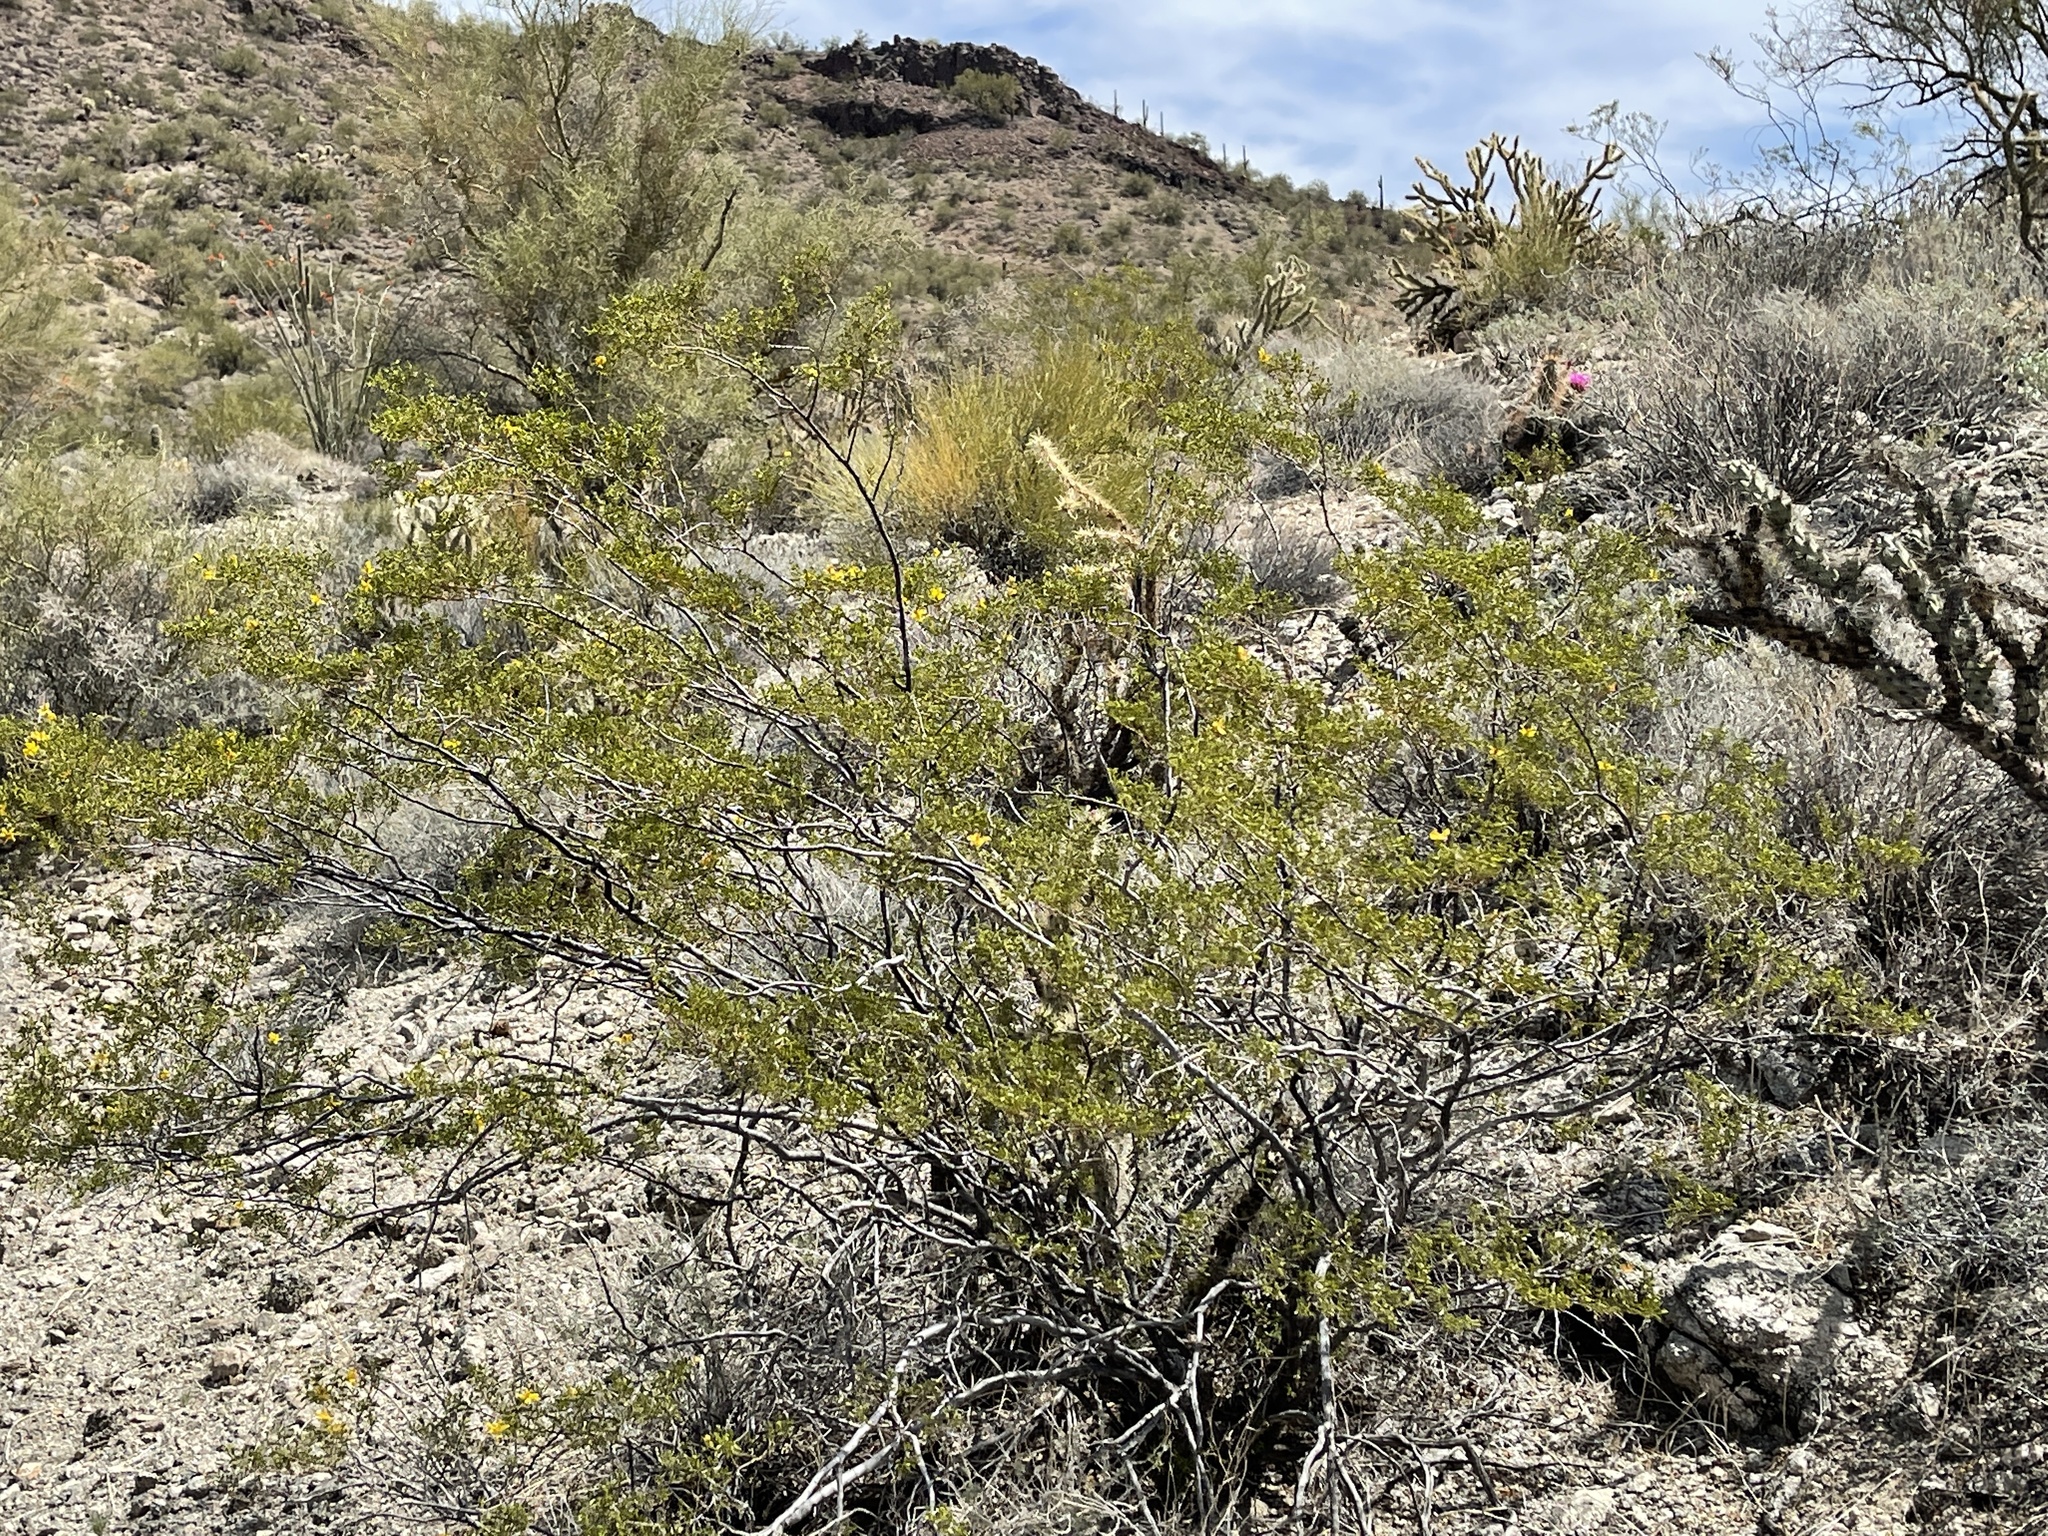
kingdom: Plantae
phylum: Tracheophyta
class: Magnoliopsida
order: Zygophyllales
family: Zygophyllaceae
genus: Larrea
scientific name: Larrea tridentata
